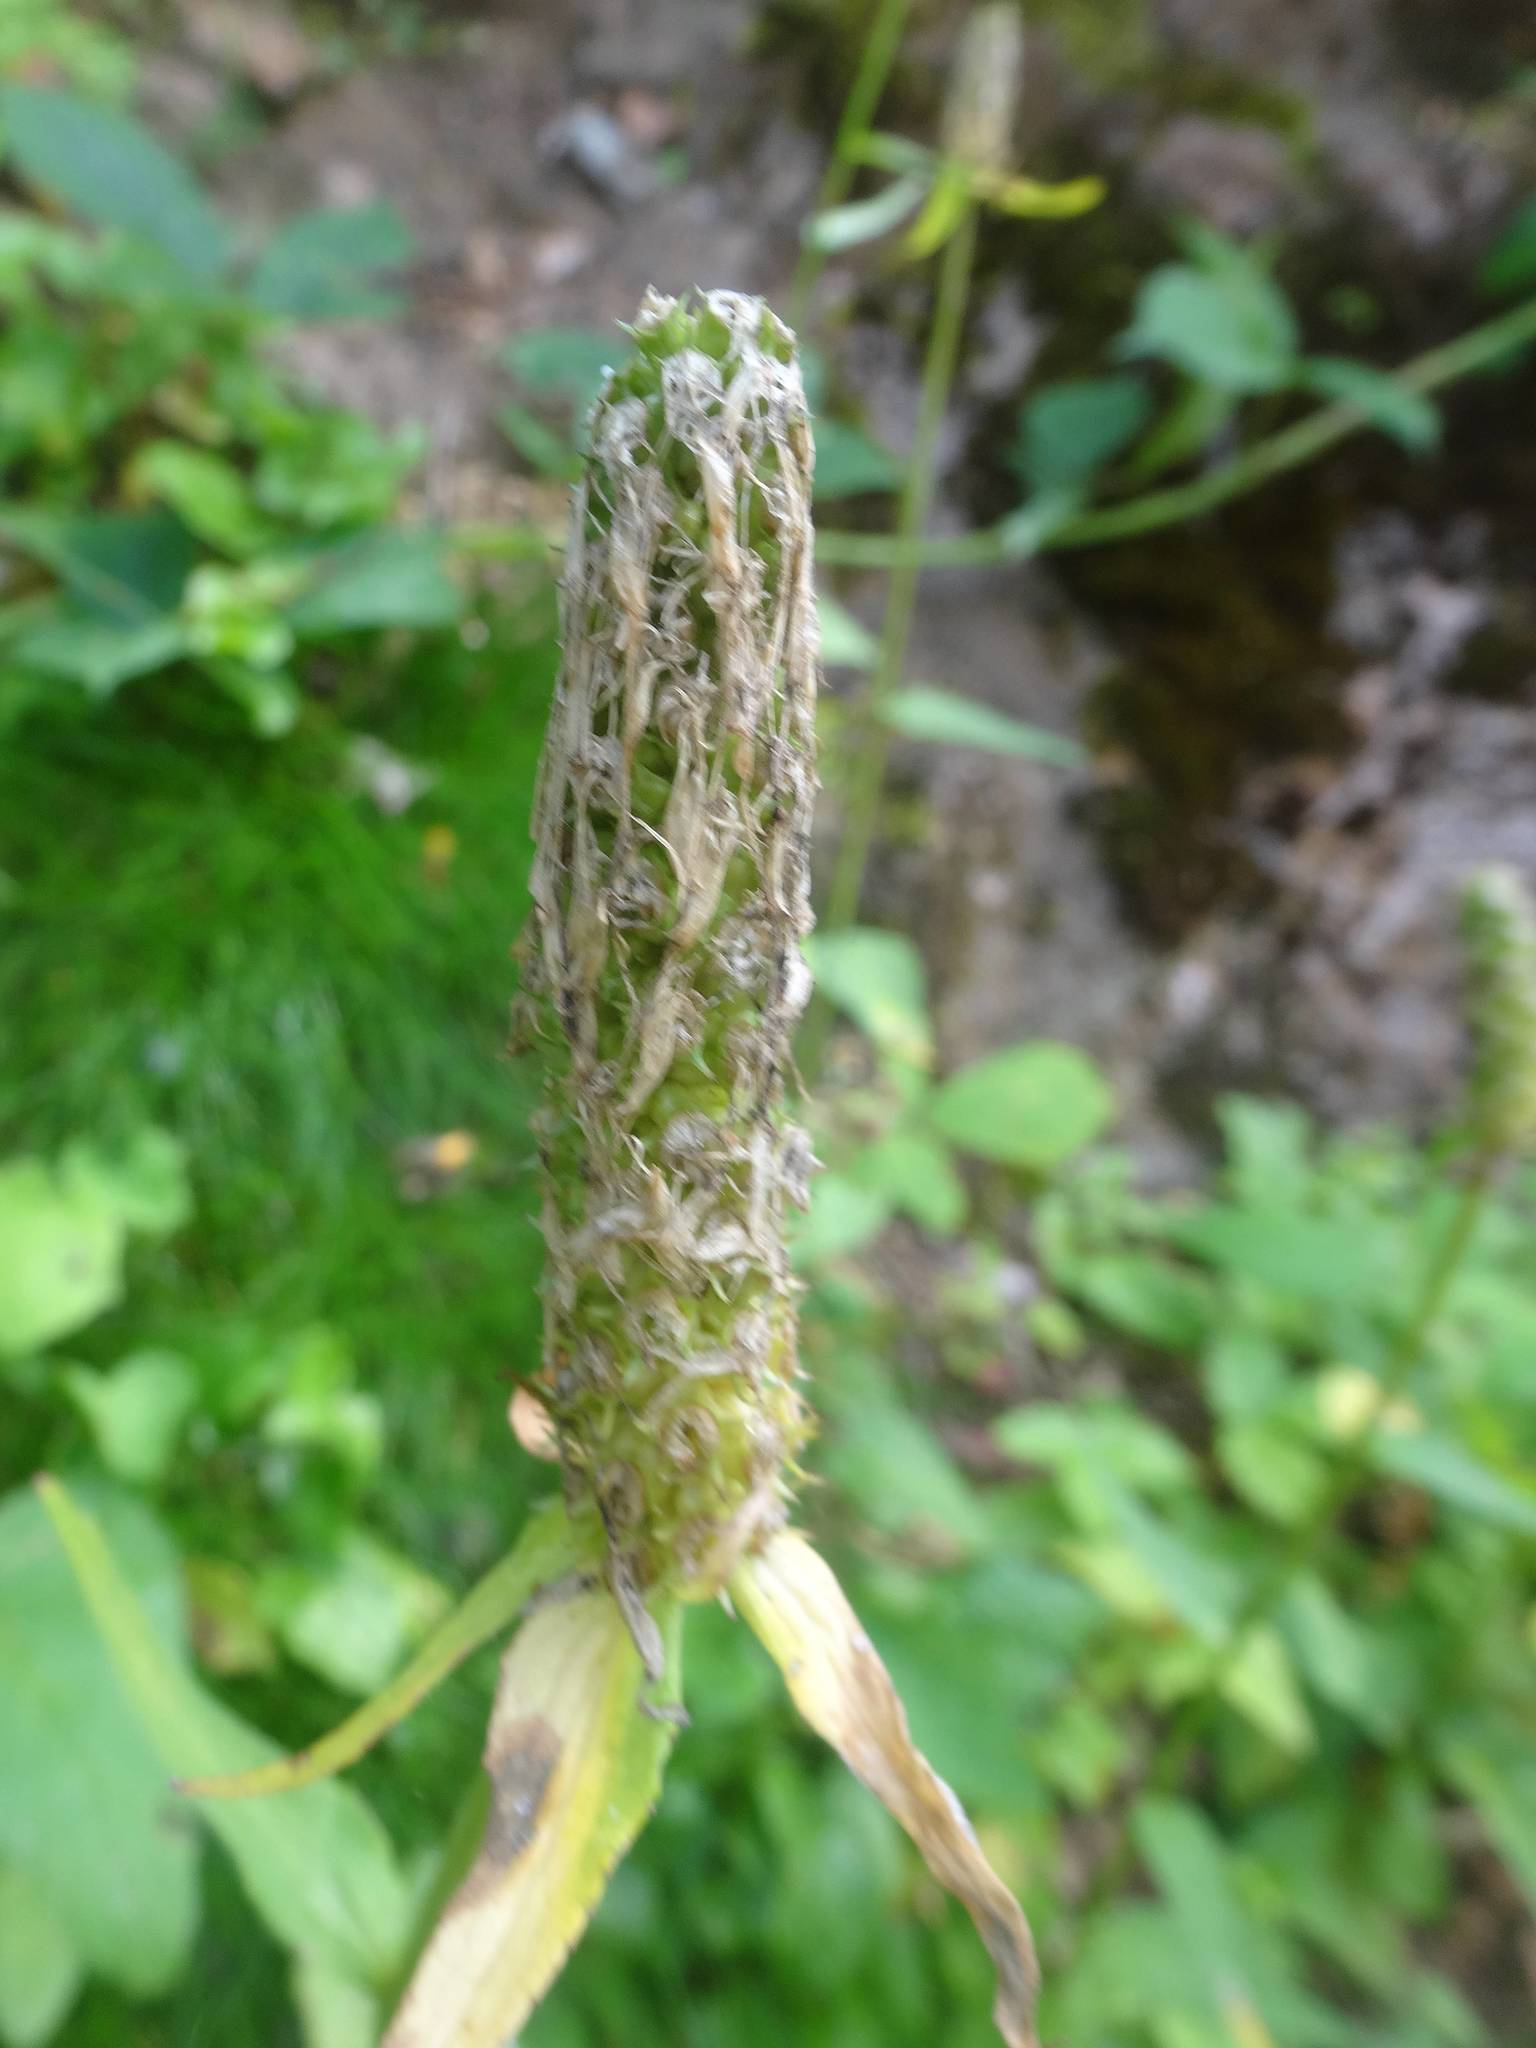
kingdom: Plantae
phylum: Tracheophyta
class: Magnoliopsida
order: Asterales
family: Campanulaceae
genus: Phyteuma
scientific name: Phyteuma spicatum
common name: Spiked rampion
